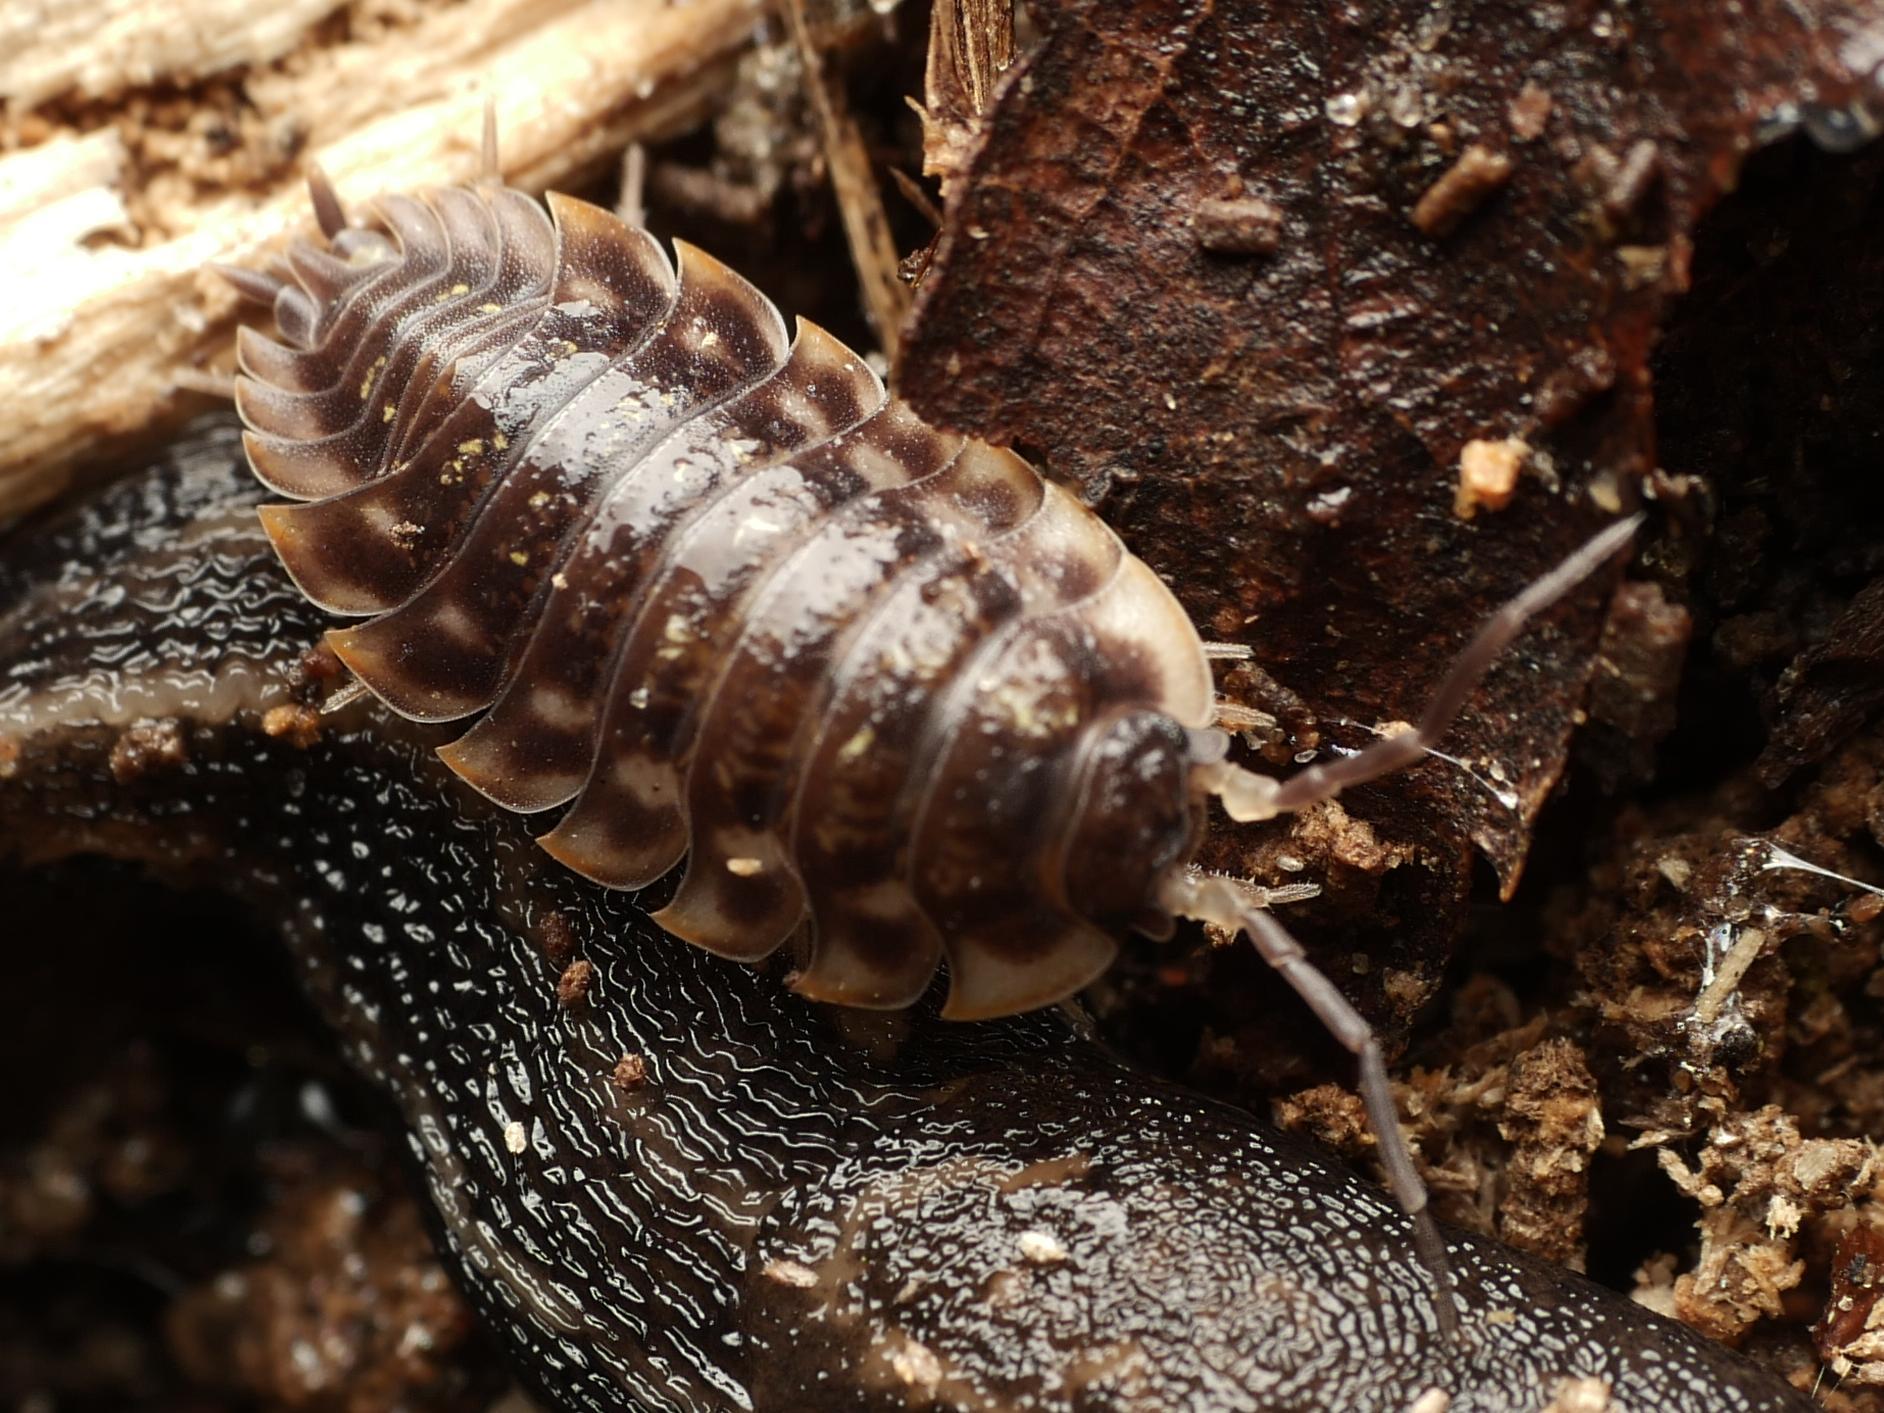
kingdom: Animalia
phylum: Arthropoda
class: Malacostraca
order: Isopoda
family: Oniscidae
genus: Oniscus
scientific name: Oniscus asellus
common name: Common shiny woodlouse
